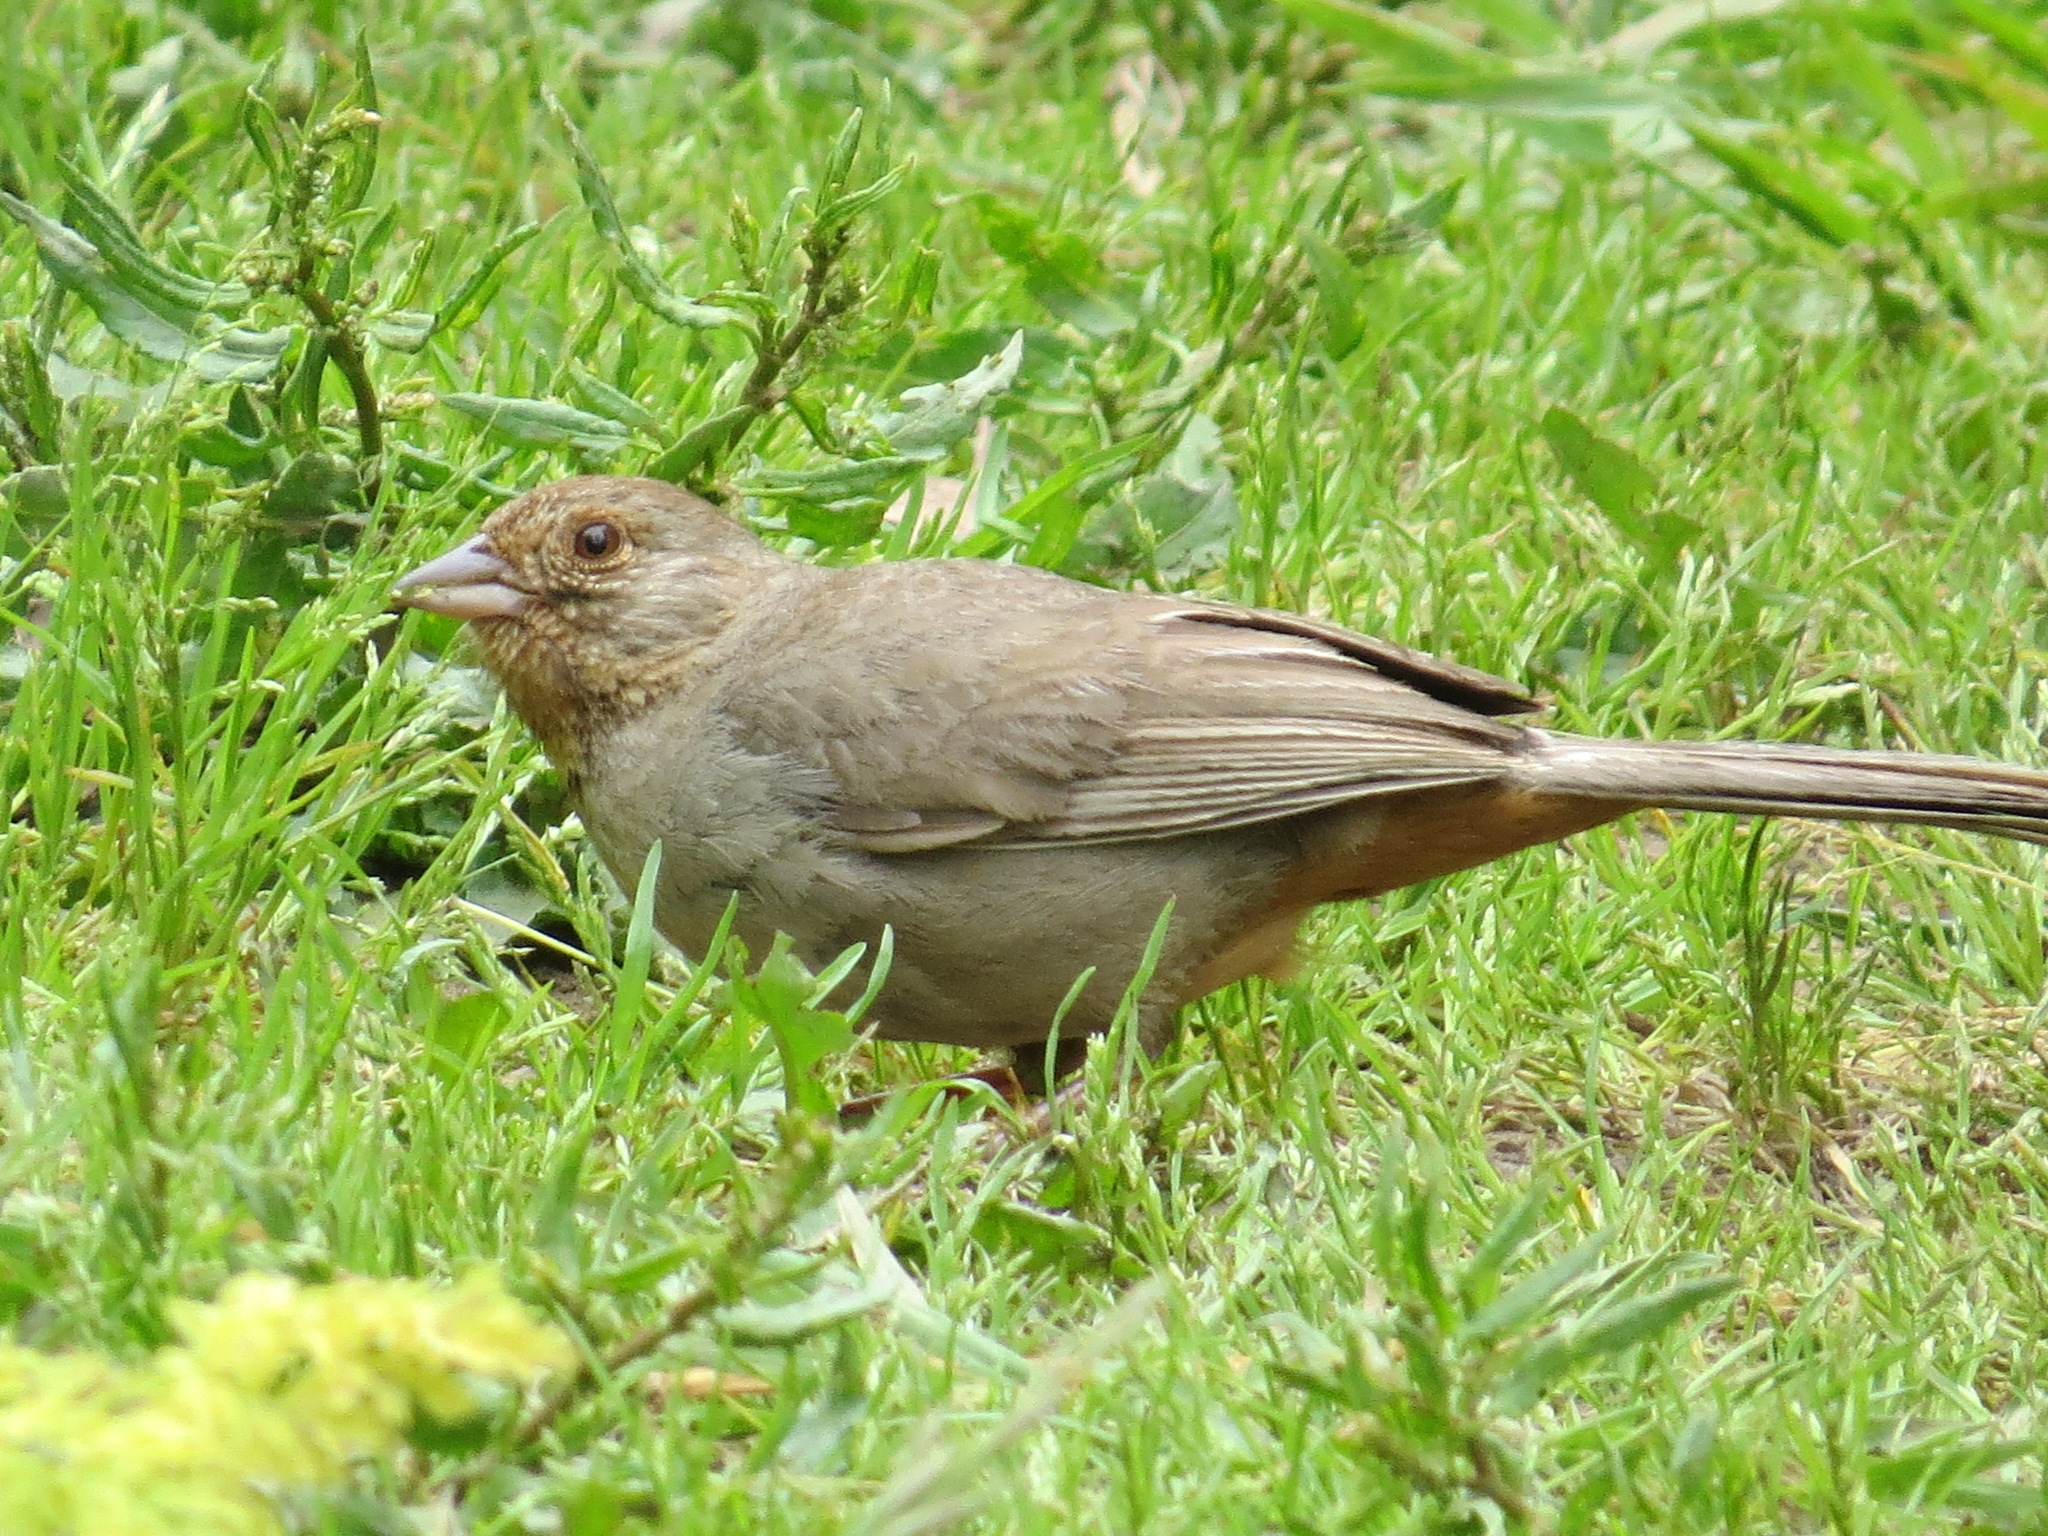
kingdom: Animalia
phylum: Chordata
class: Aves
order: Passeriformes
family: Passerellidae
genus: Melozone
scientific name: Melozone crissalis
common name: California towhee
